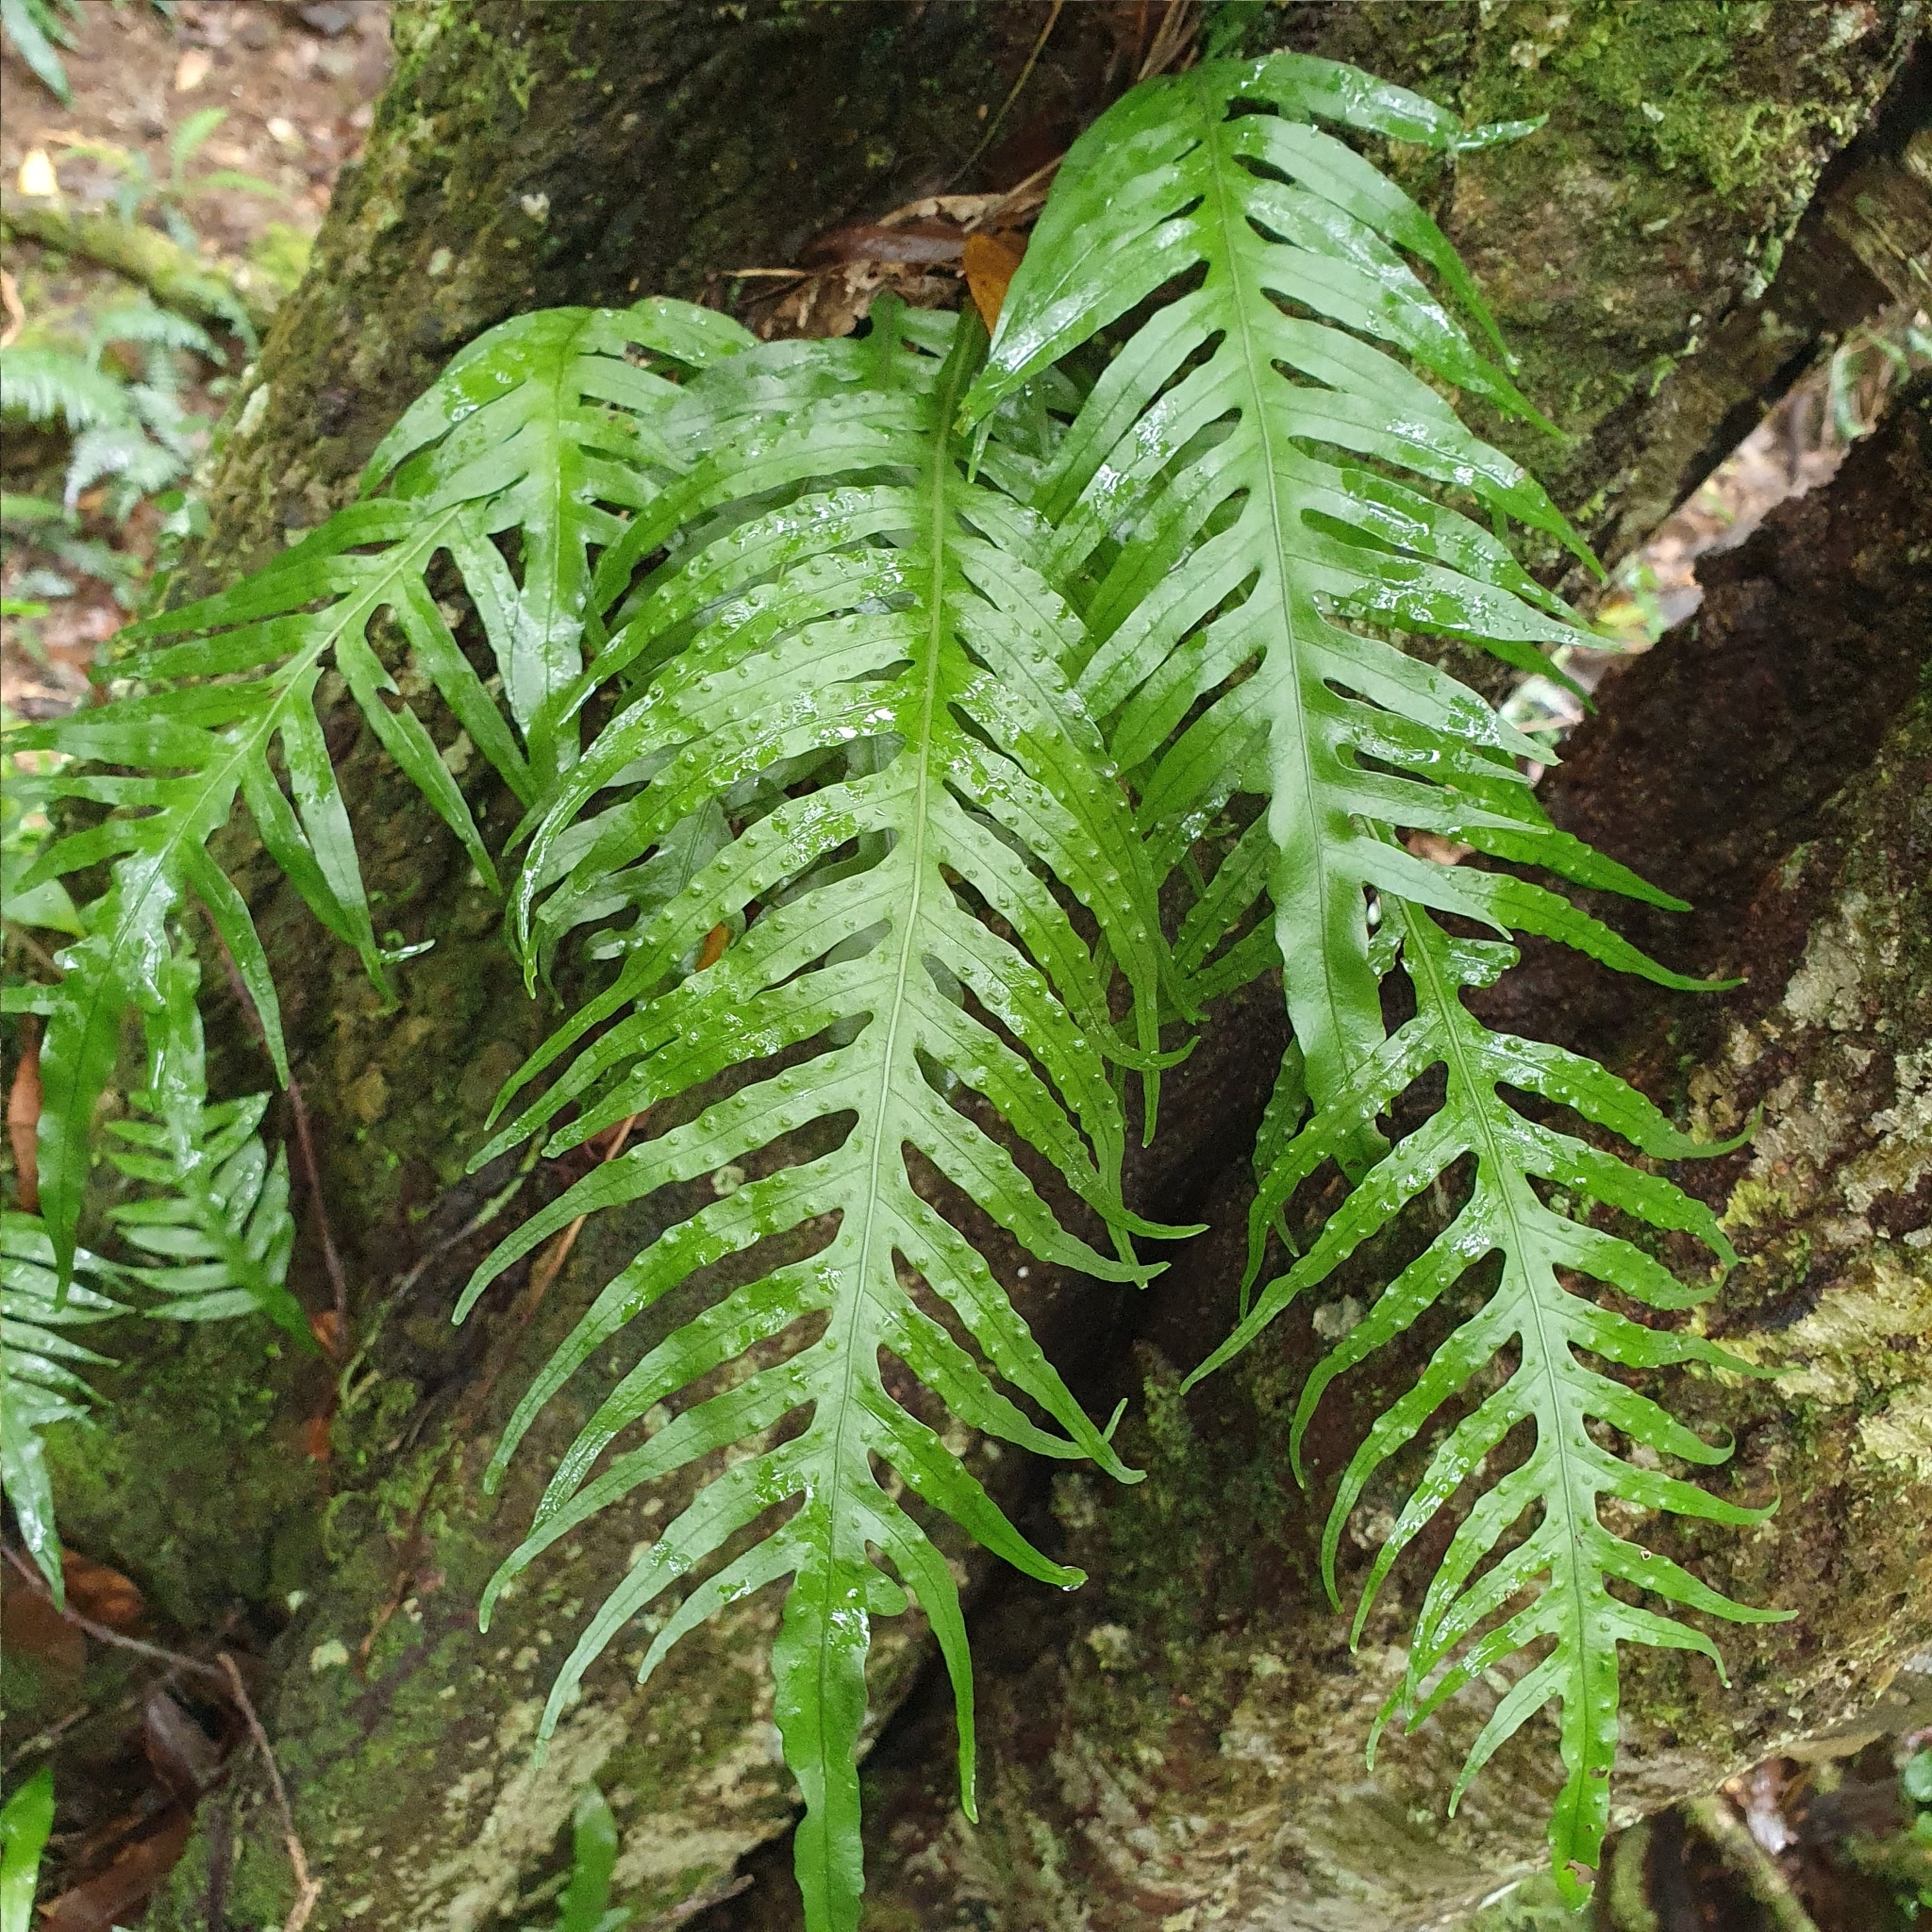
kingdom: Plantae
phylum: Tracheophyta
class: Polypodiopsida
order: Polypodiales
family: Polypodiaceae
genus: Lecanopteris
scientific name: Lecanopteris scandens
